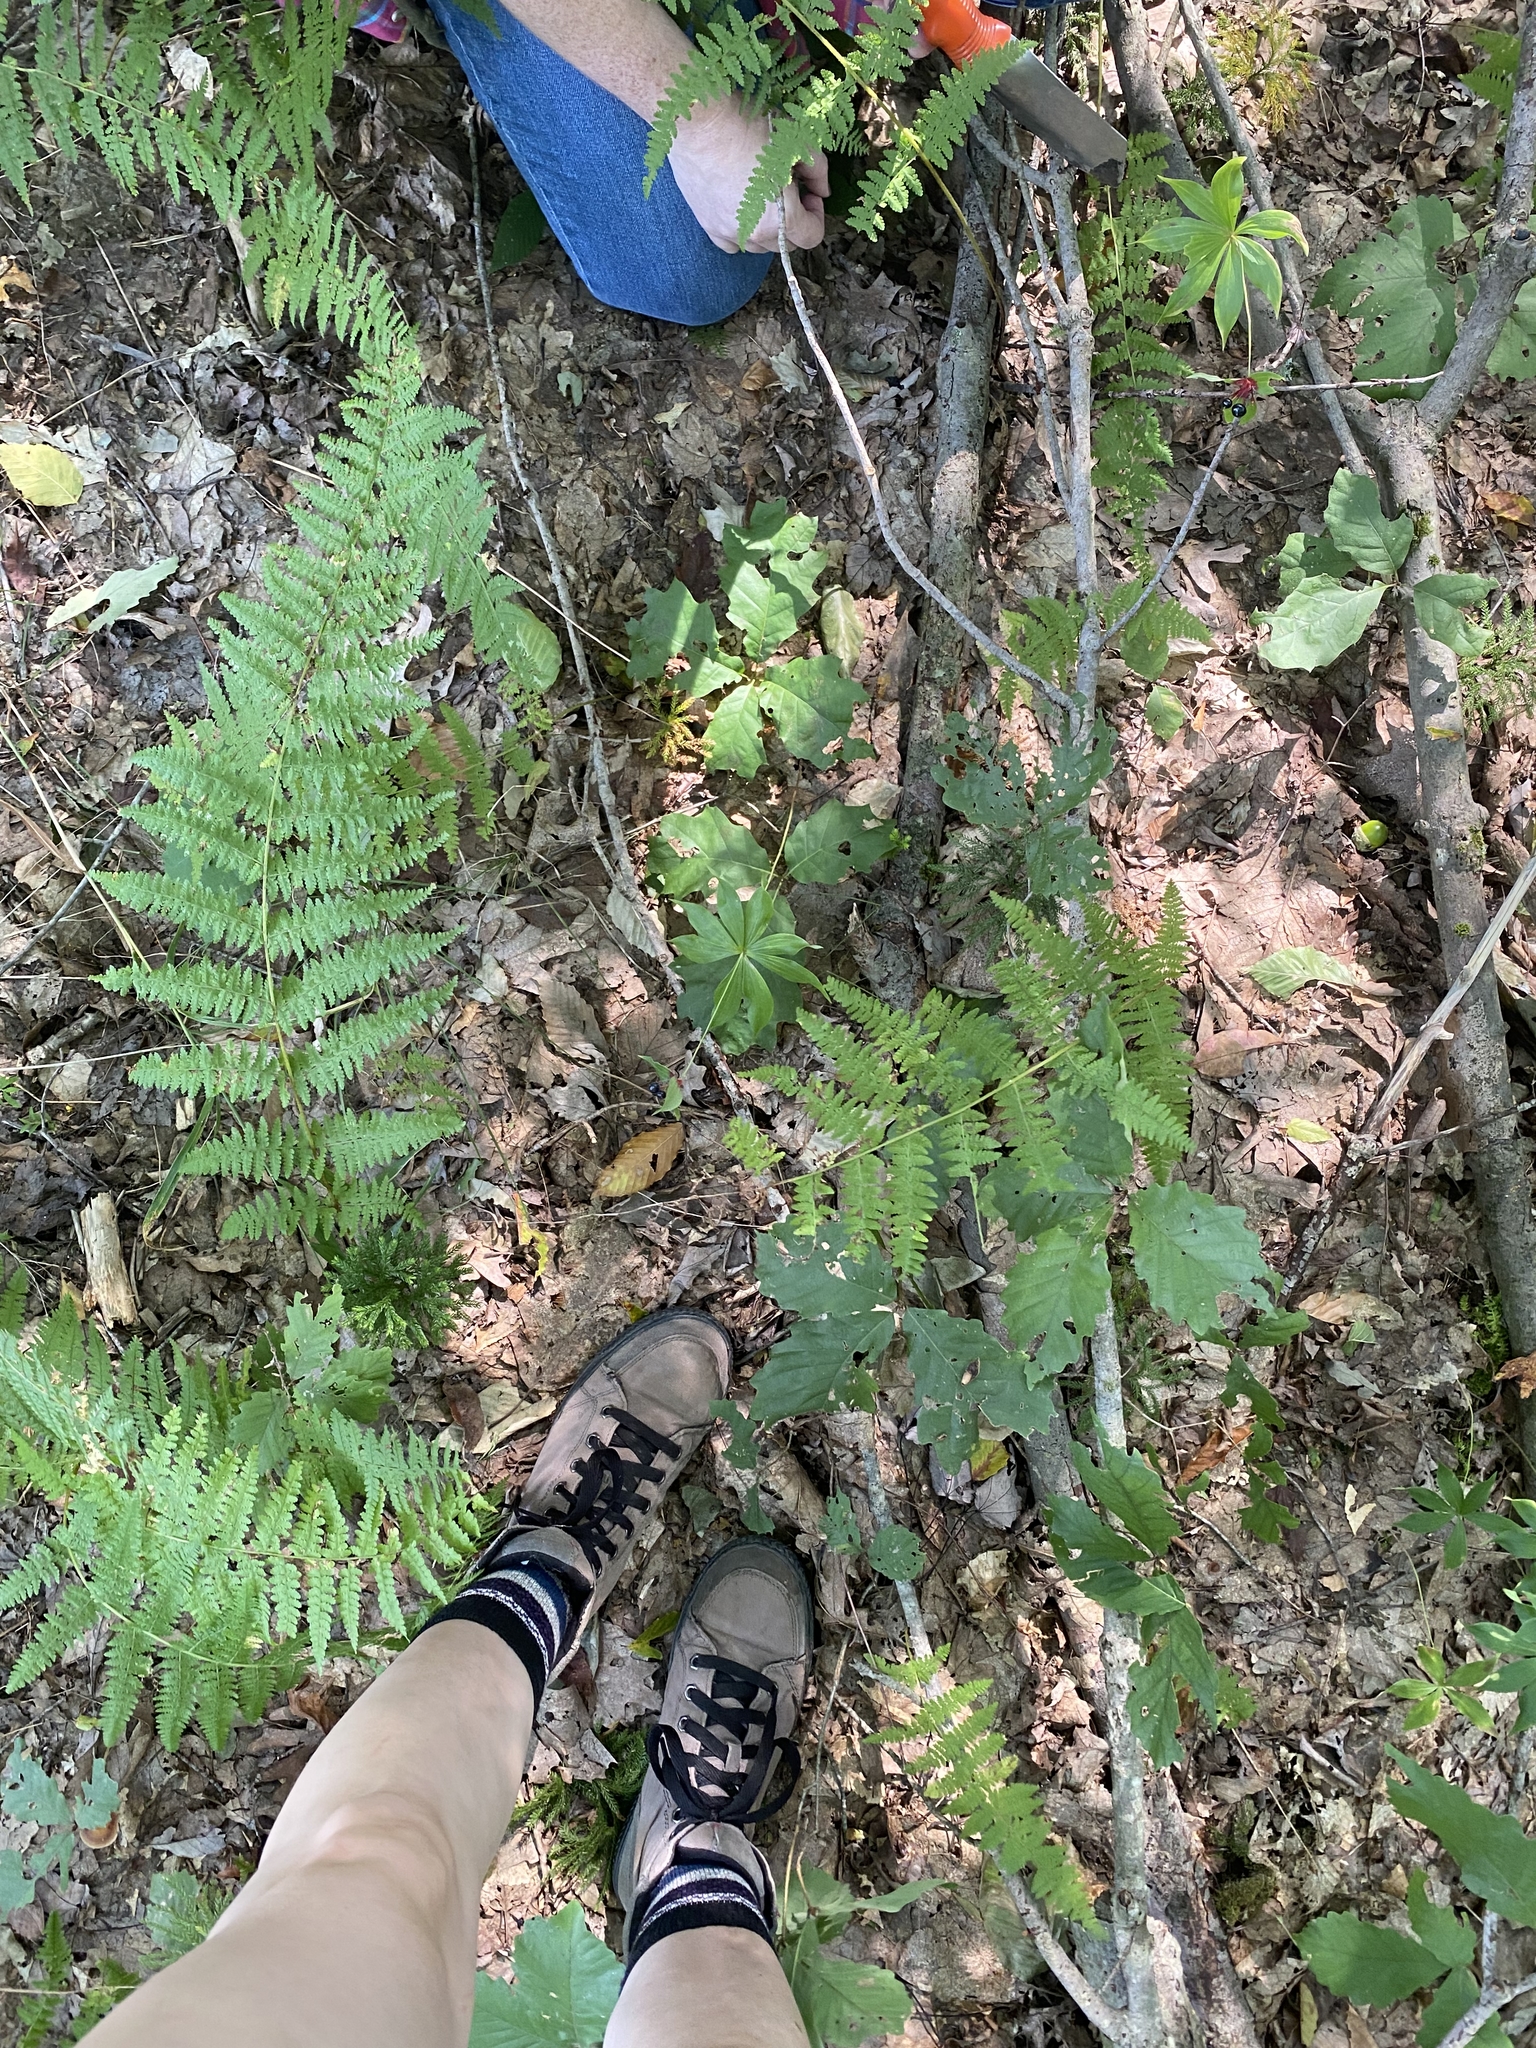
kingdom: Plantae
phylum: Tracheophyta
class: Liliopsida
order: Liliales
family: Liliaceae
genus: Medeola
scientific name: Medeola virginiana
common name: Indian cucumber-root
